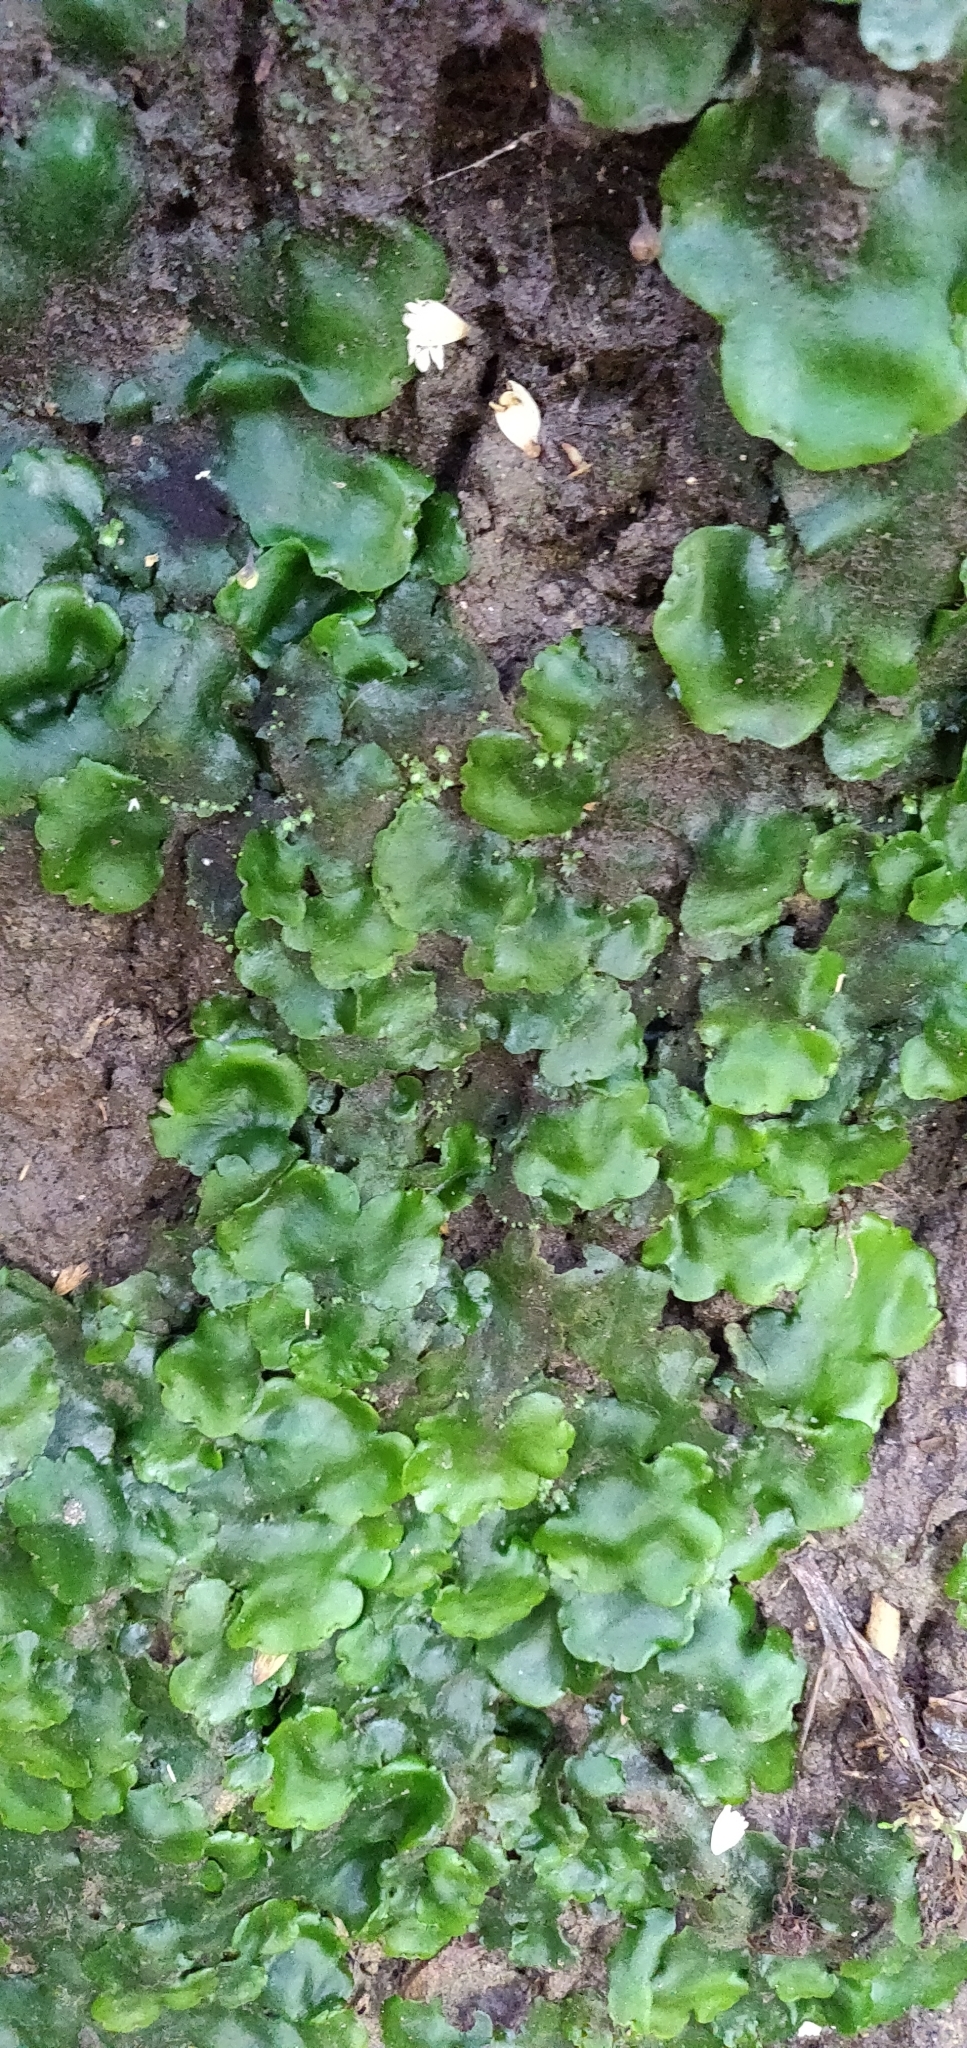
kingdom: Plantae
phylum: Marchantiophyta
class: Marchantiopsida
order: Marchantiales
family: Monocleaceae
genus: Monoclea
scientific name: Monoclea forsteri
